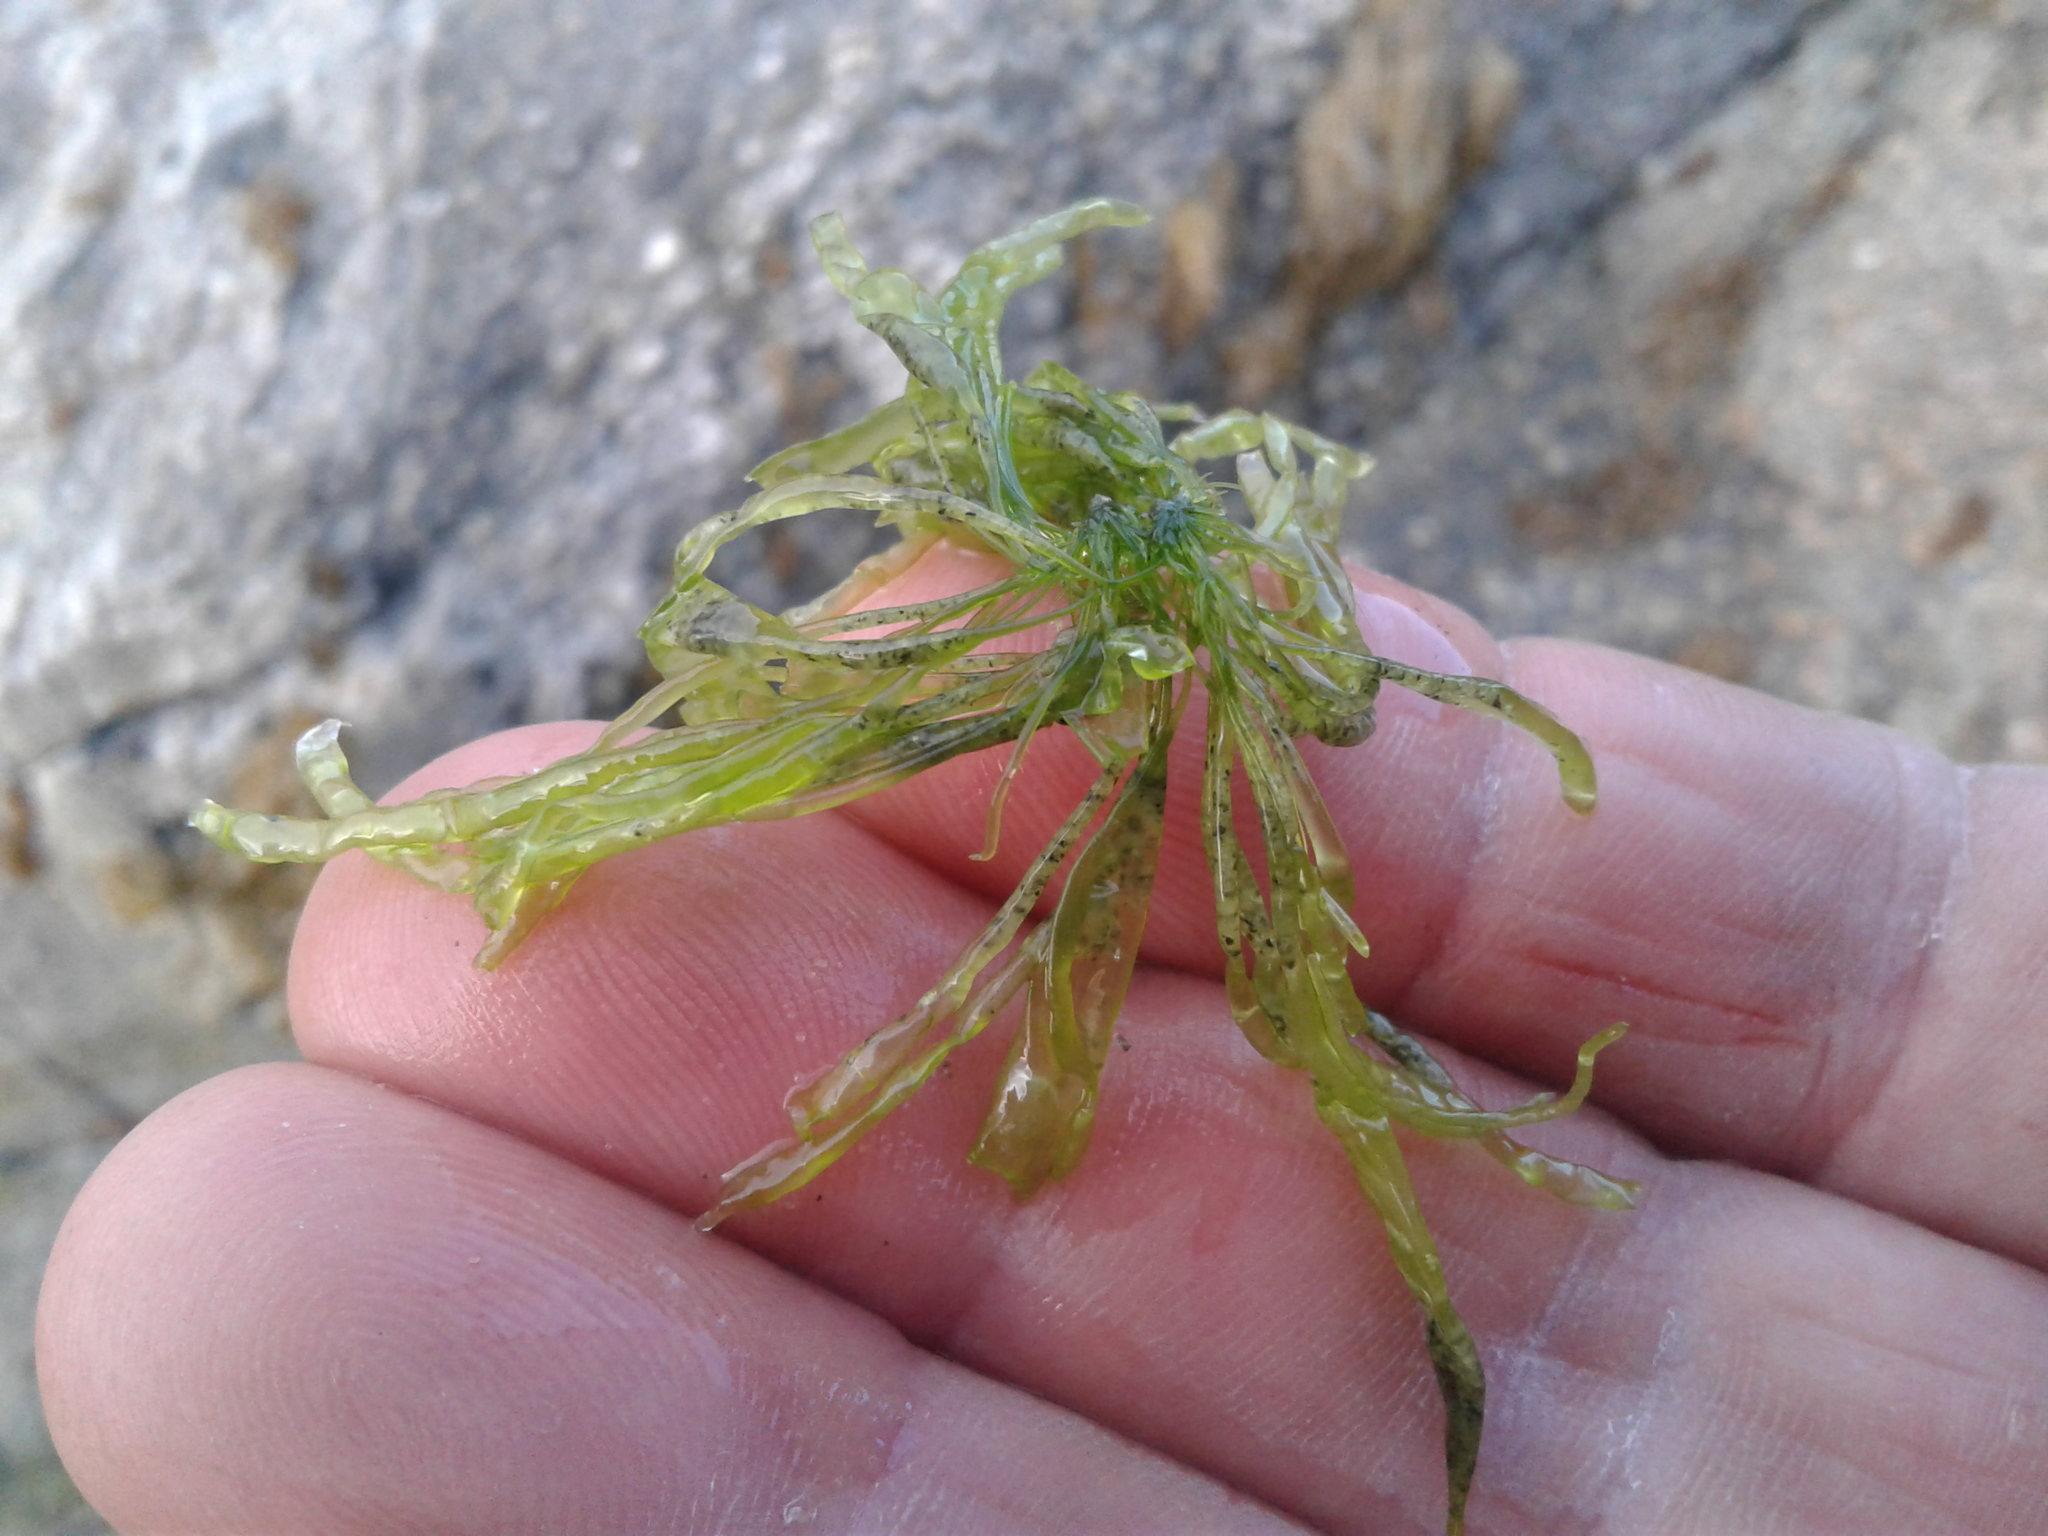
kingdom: Plantae
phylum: Chlorophyta
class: Ulvophyceae
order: Ulvales
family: Ulvaceae
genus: Ulva
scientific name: Ulva intestinalis
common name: Gut weed
